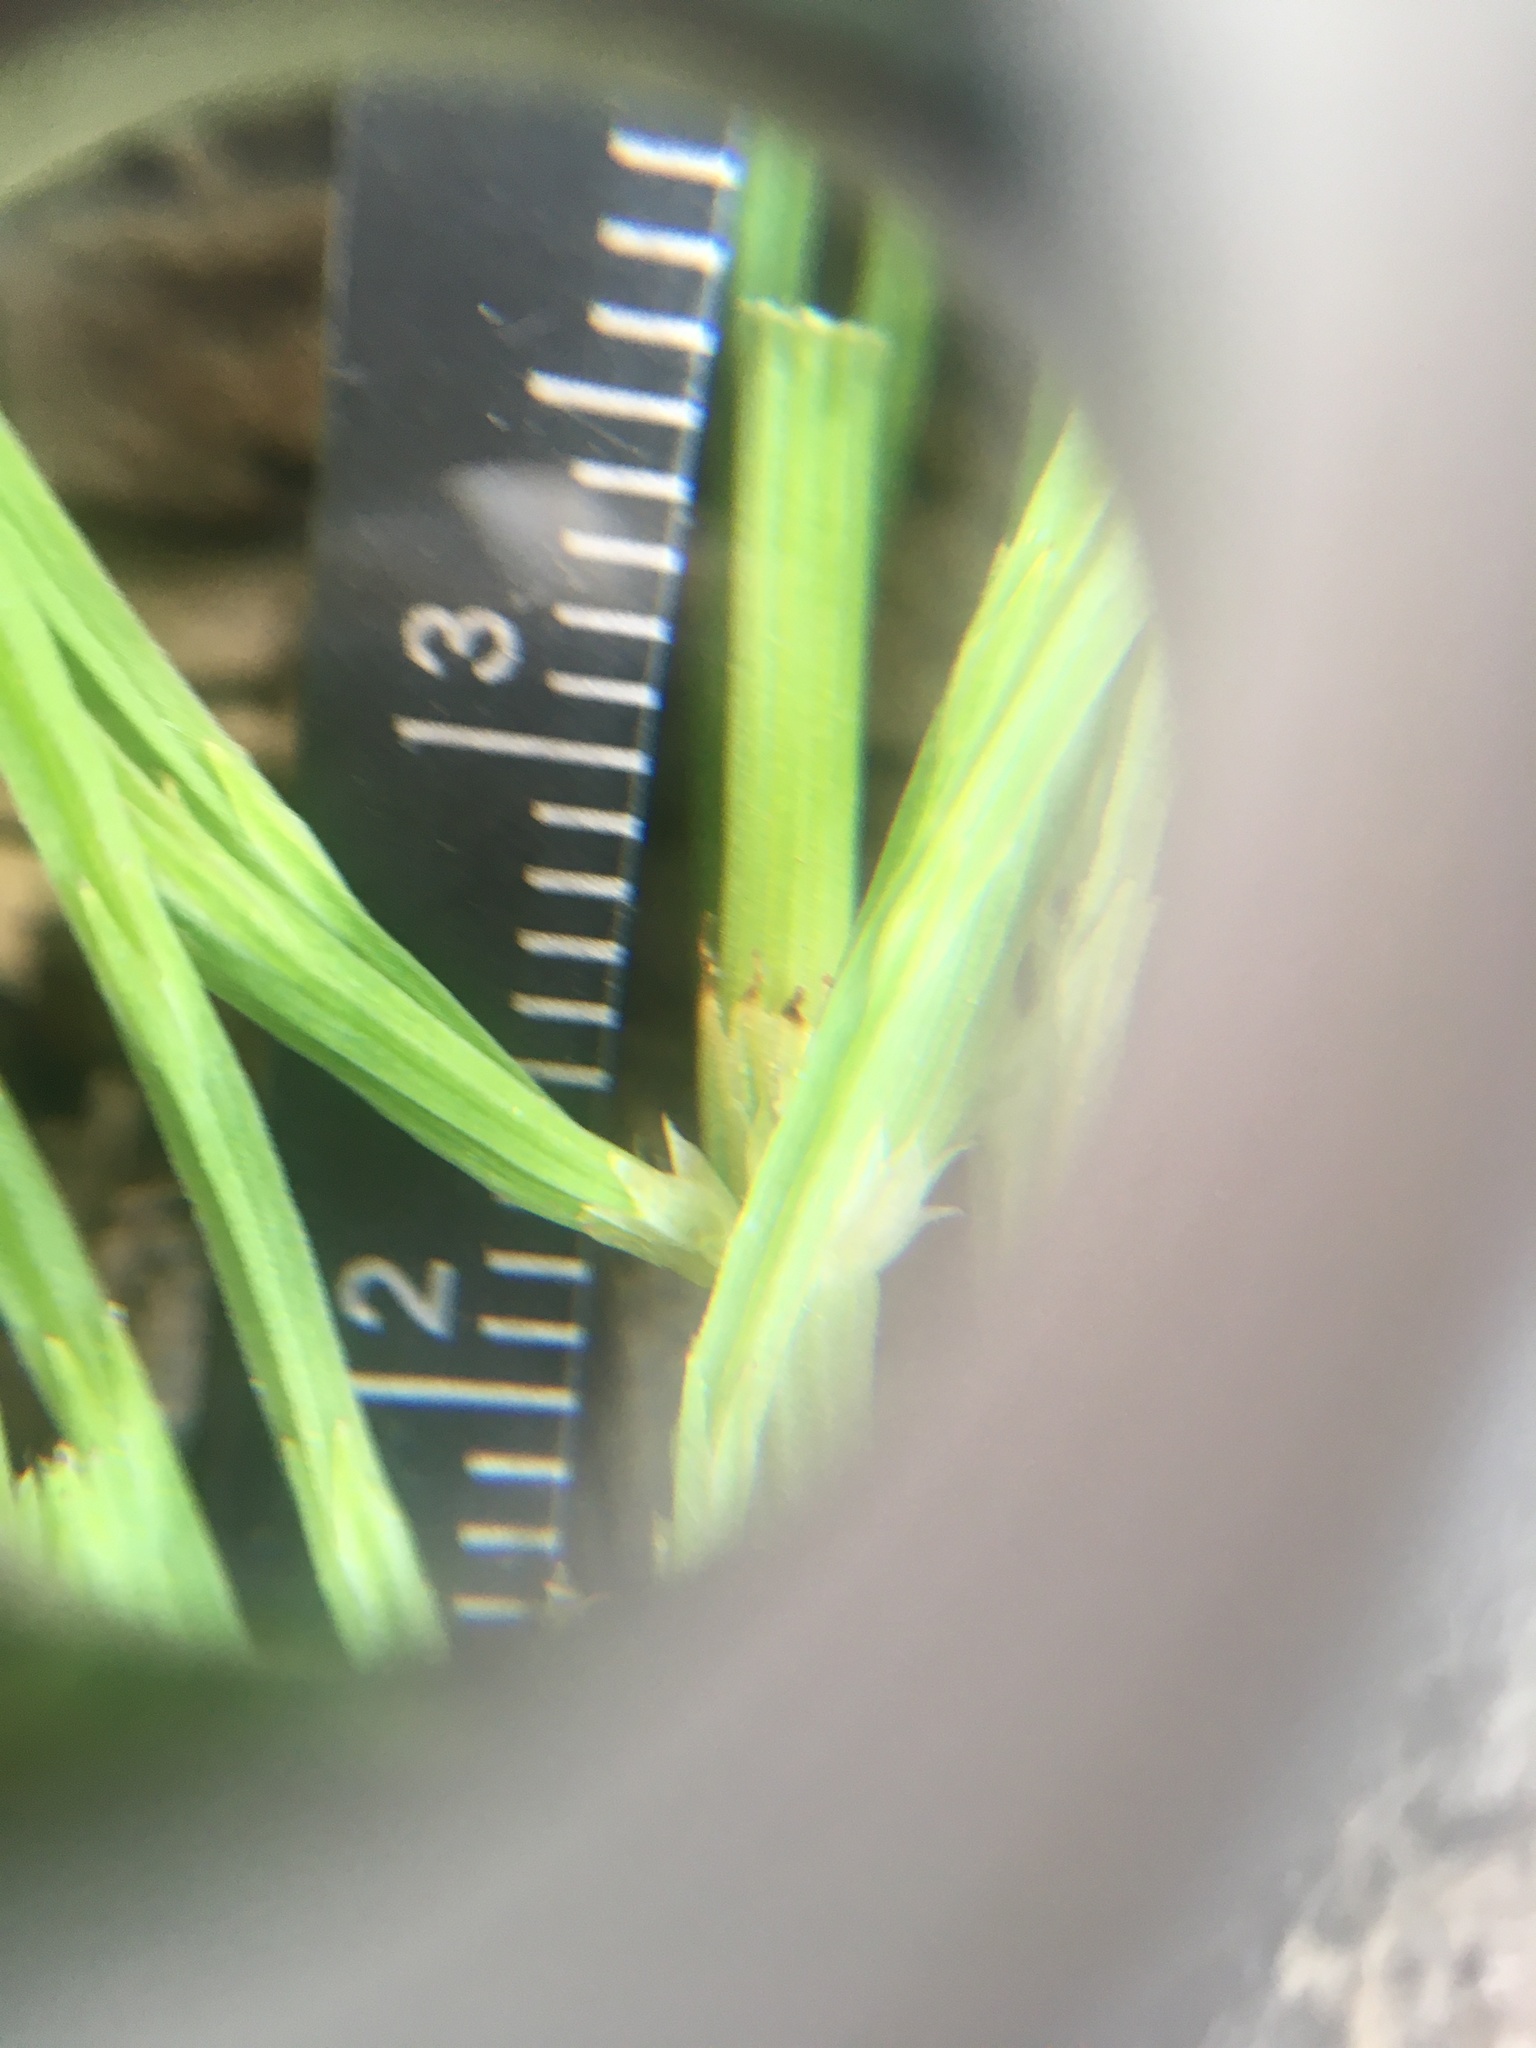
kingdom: Plantae
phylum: Tracheophyta
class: Polypodiopsida
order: Equisetales
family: Equisetaceae
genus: Equisetum
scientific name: Equisetum arvense
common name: Field horsetail
